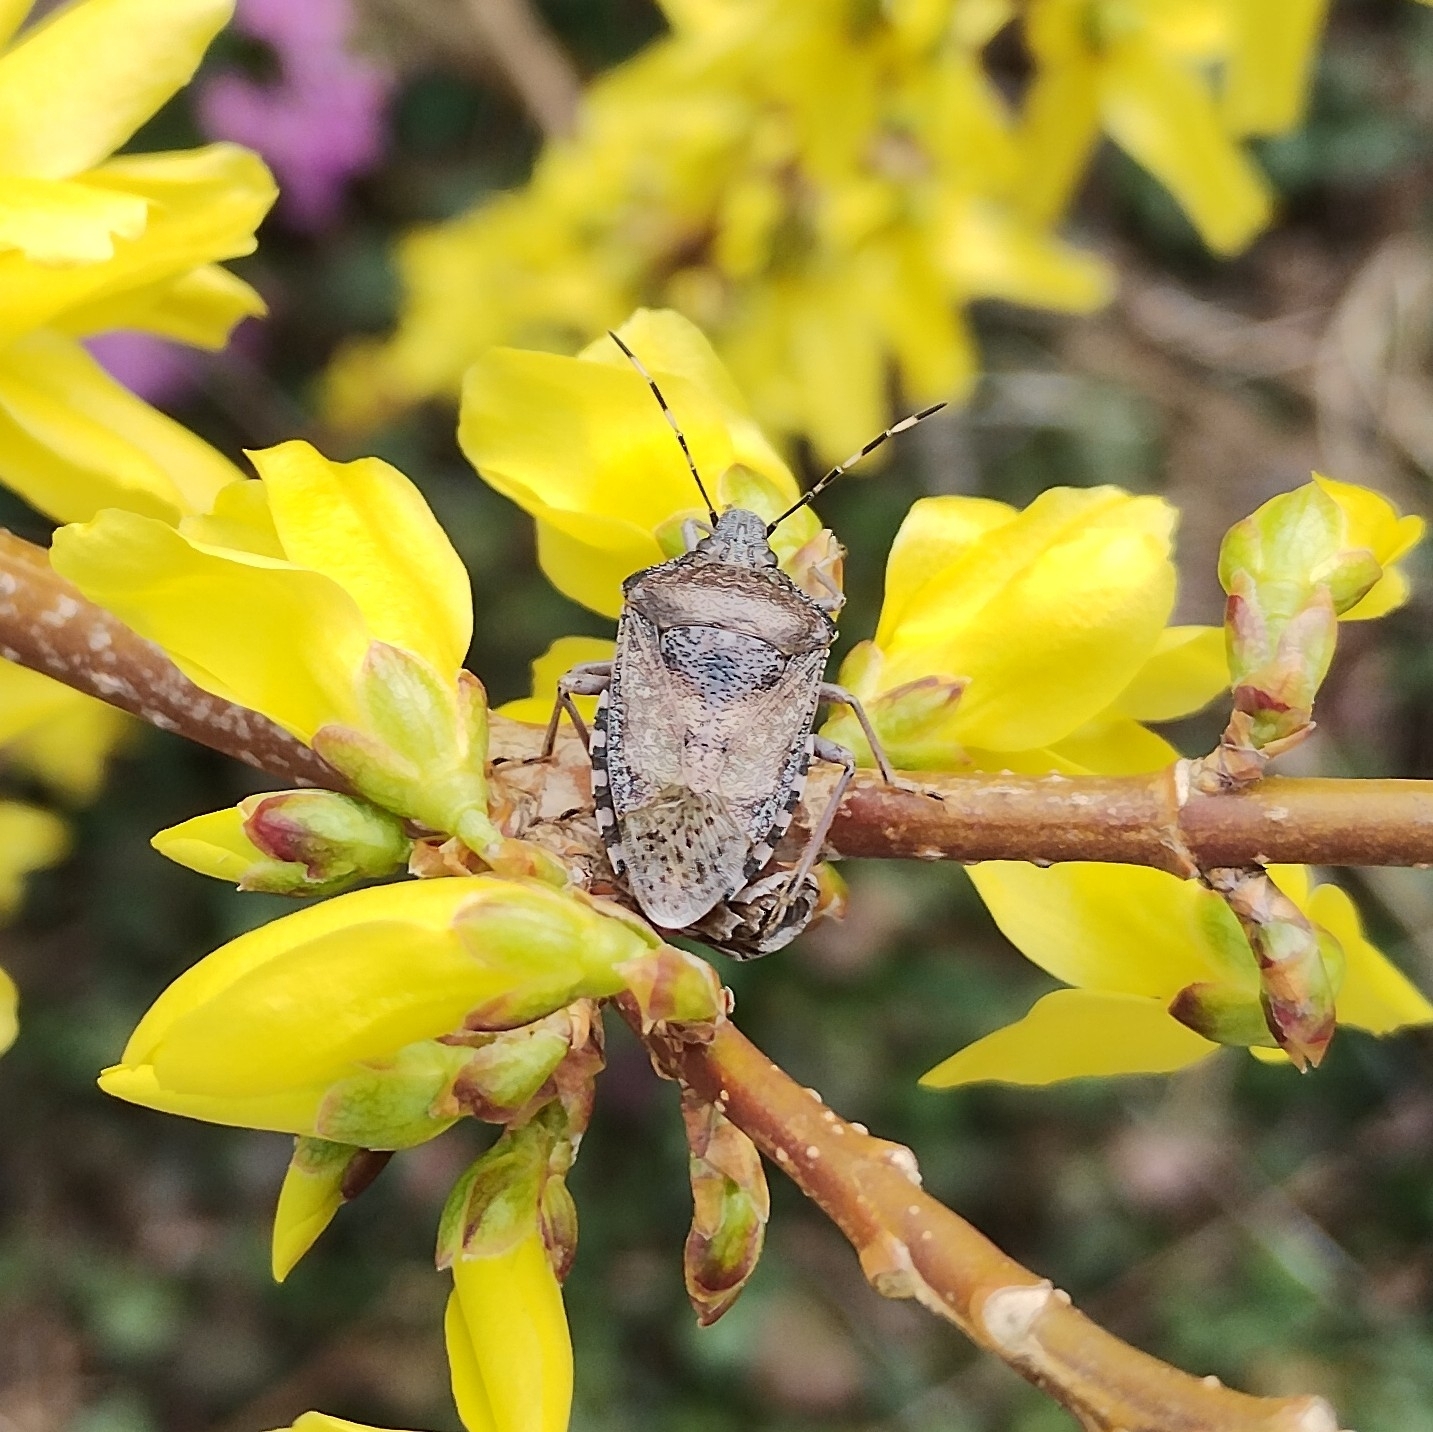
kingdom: Animalia
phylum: Arthropoda
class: Insecta
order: Hemiptera
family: Pentatomidae
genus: Rhaphigaster
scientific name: Rhaphigaster nebulosa
